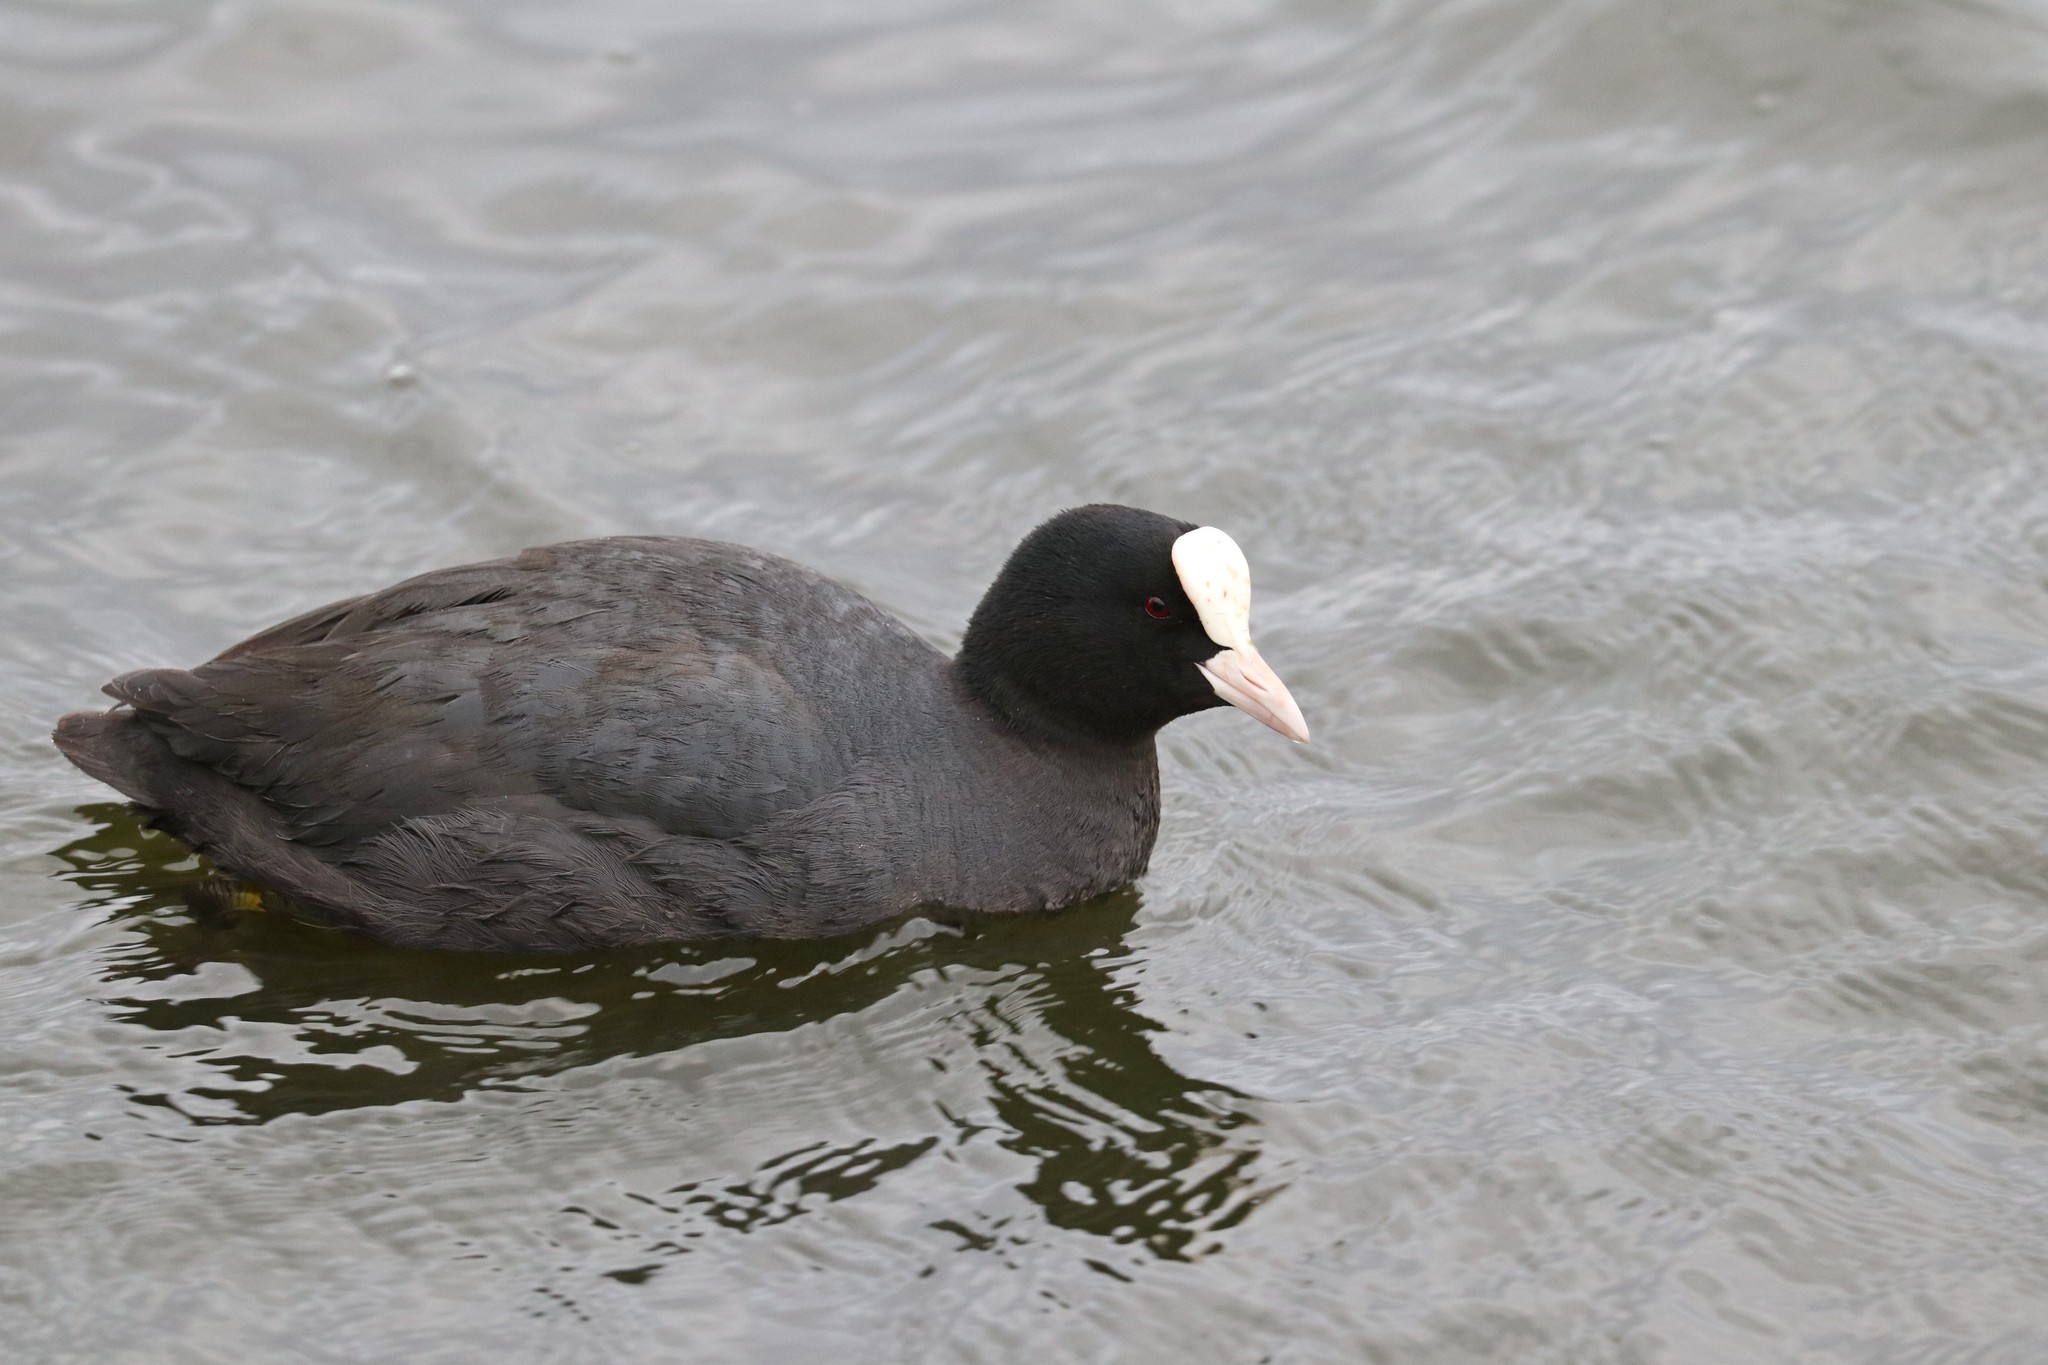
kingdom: Animalia
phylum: Chordata
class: Aves
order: Gruiformes
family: Rallidae
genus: Fulica
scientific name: Fulica atra
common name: Eurasian coot
